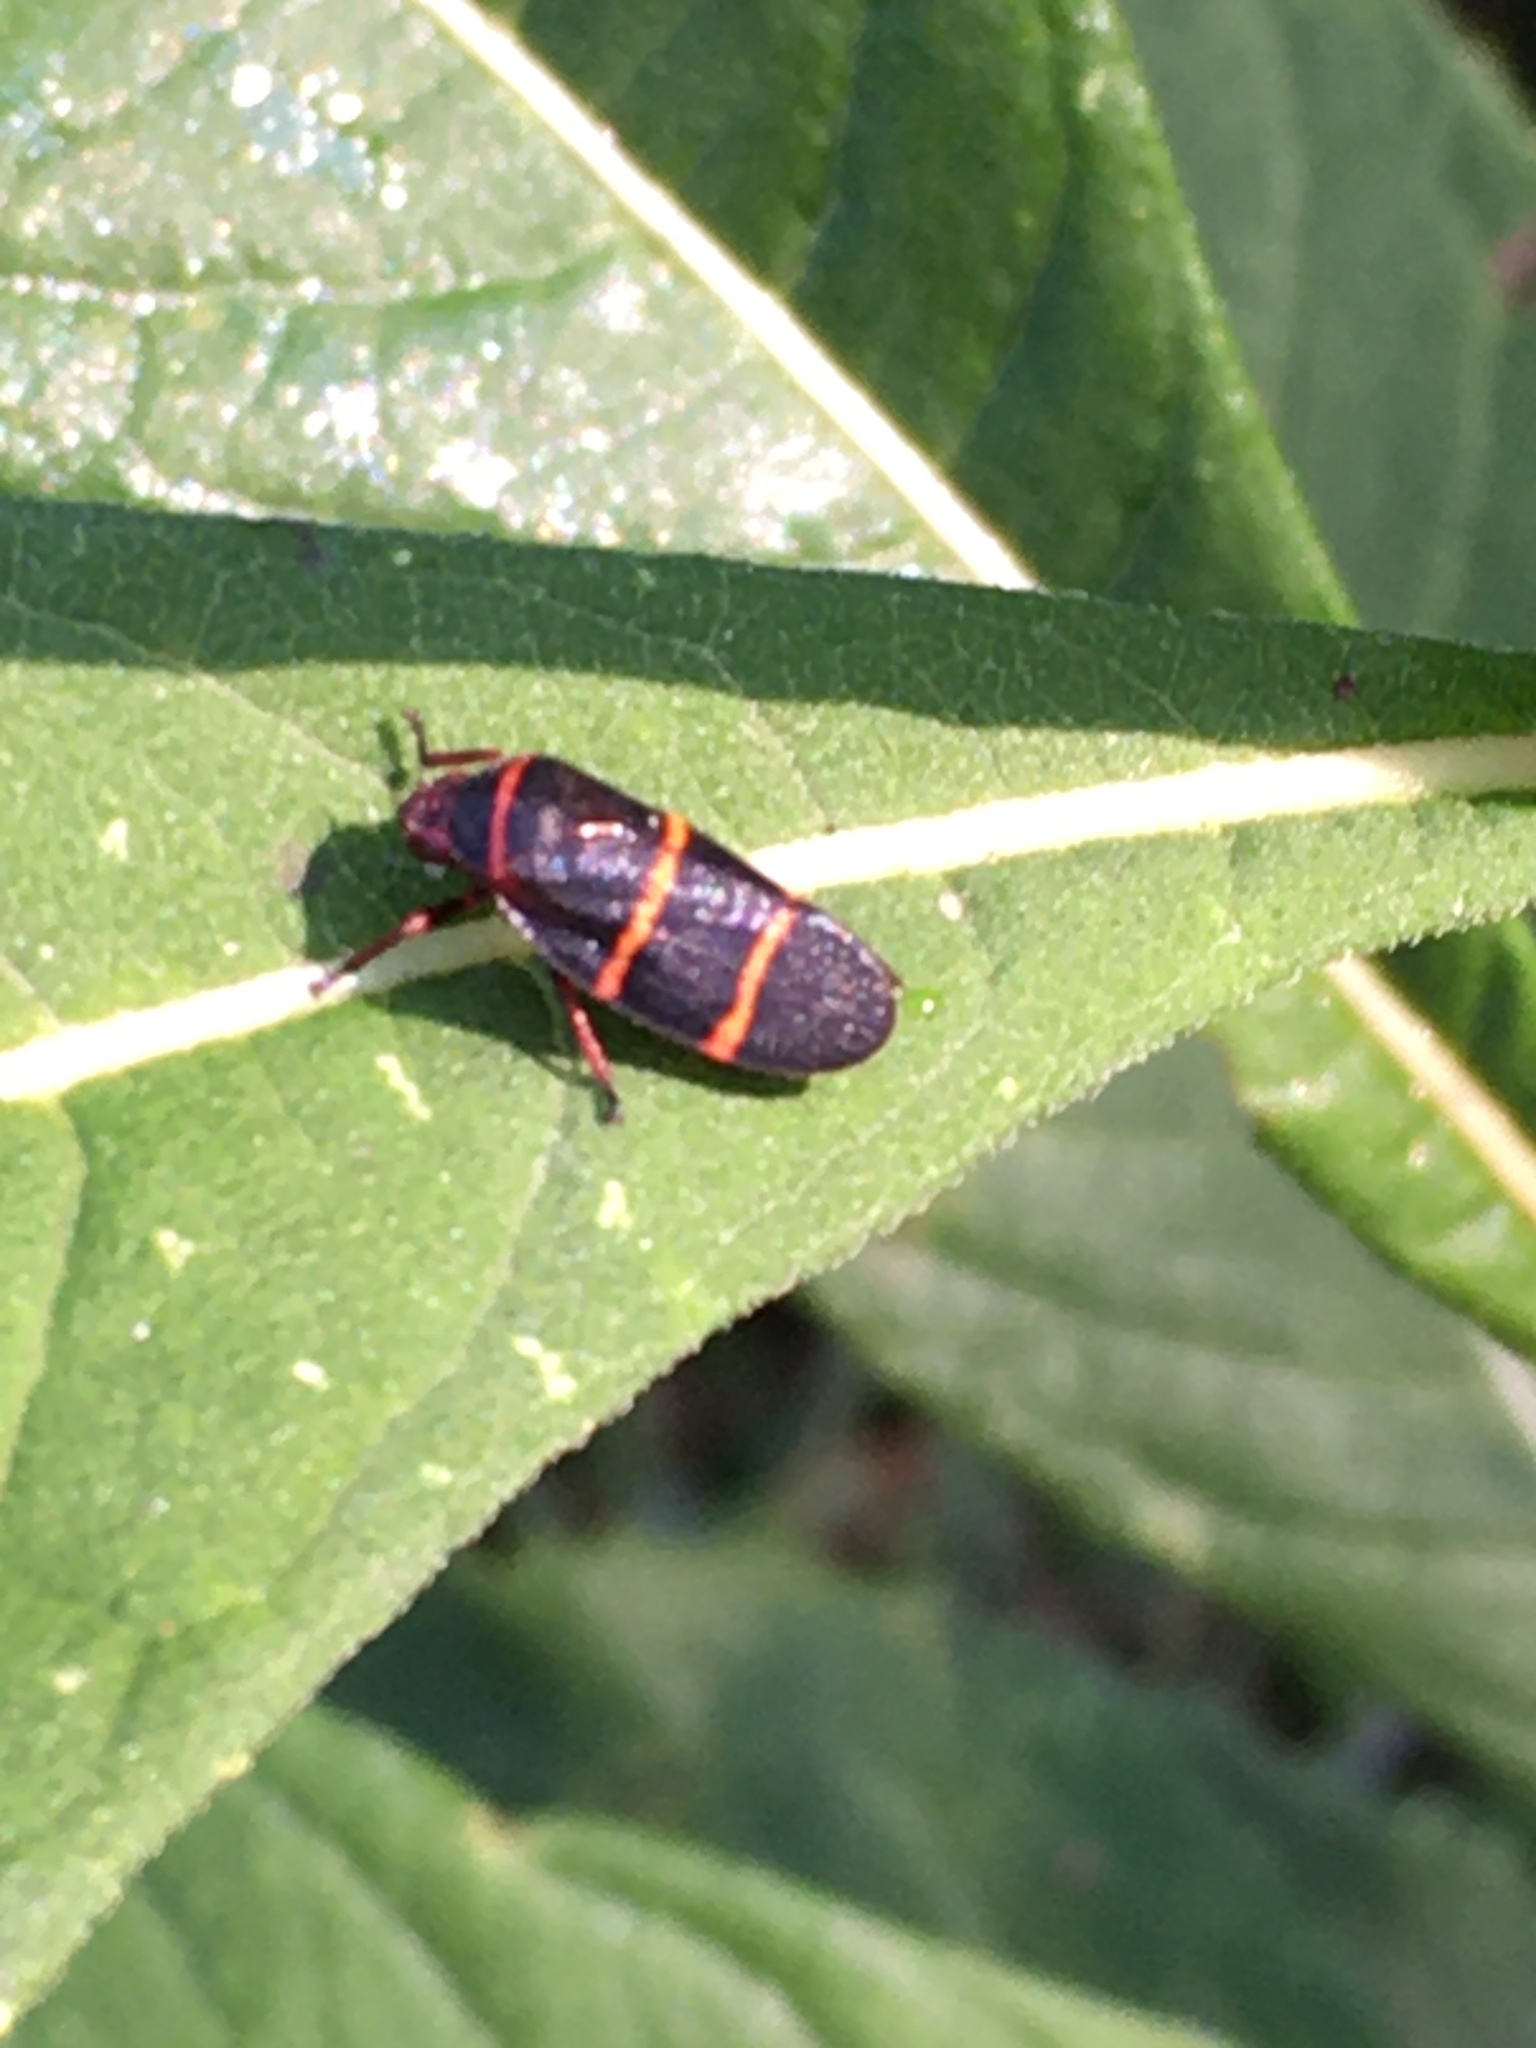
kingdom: Animalia
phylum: Arthropoda
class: Insecta
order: Hemiptera
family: Cercopidae
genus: Prosapia
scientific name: Prosapia bicincta
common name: Twolined spittlebug
